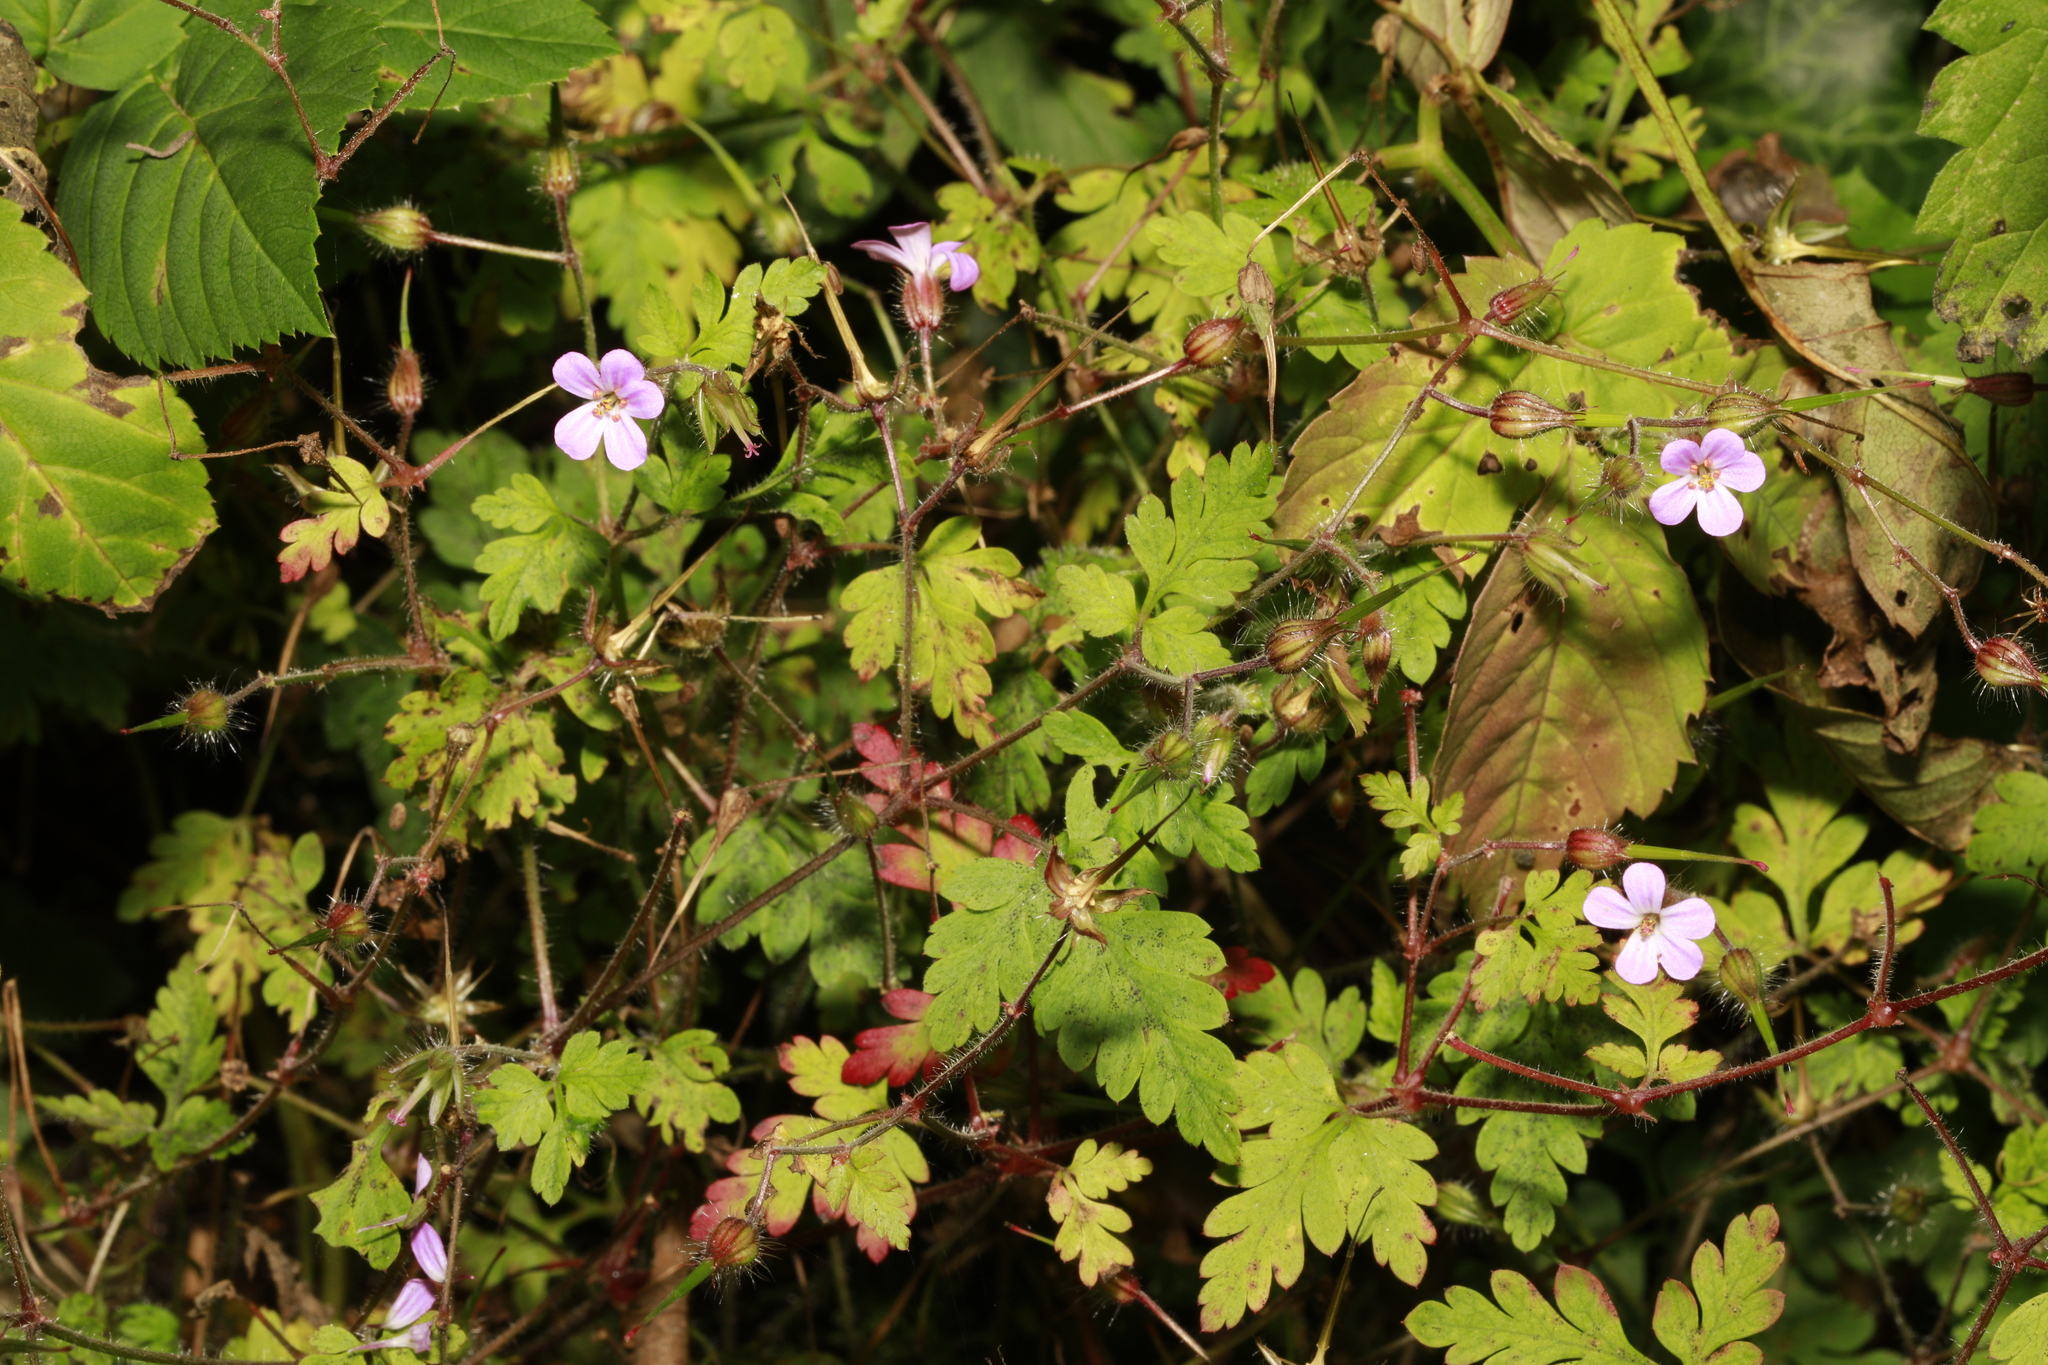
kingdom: Plantae
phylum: Tracheophyta
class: Magnoliopsida
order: Geraniales
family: Geraniaceae
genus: Geranium
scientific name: Geranium robertianum
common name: Herb-robert
